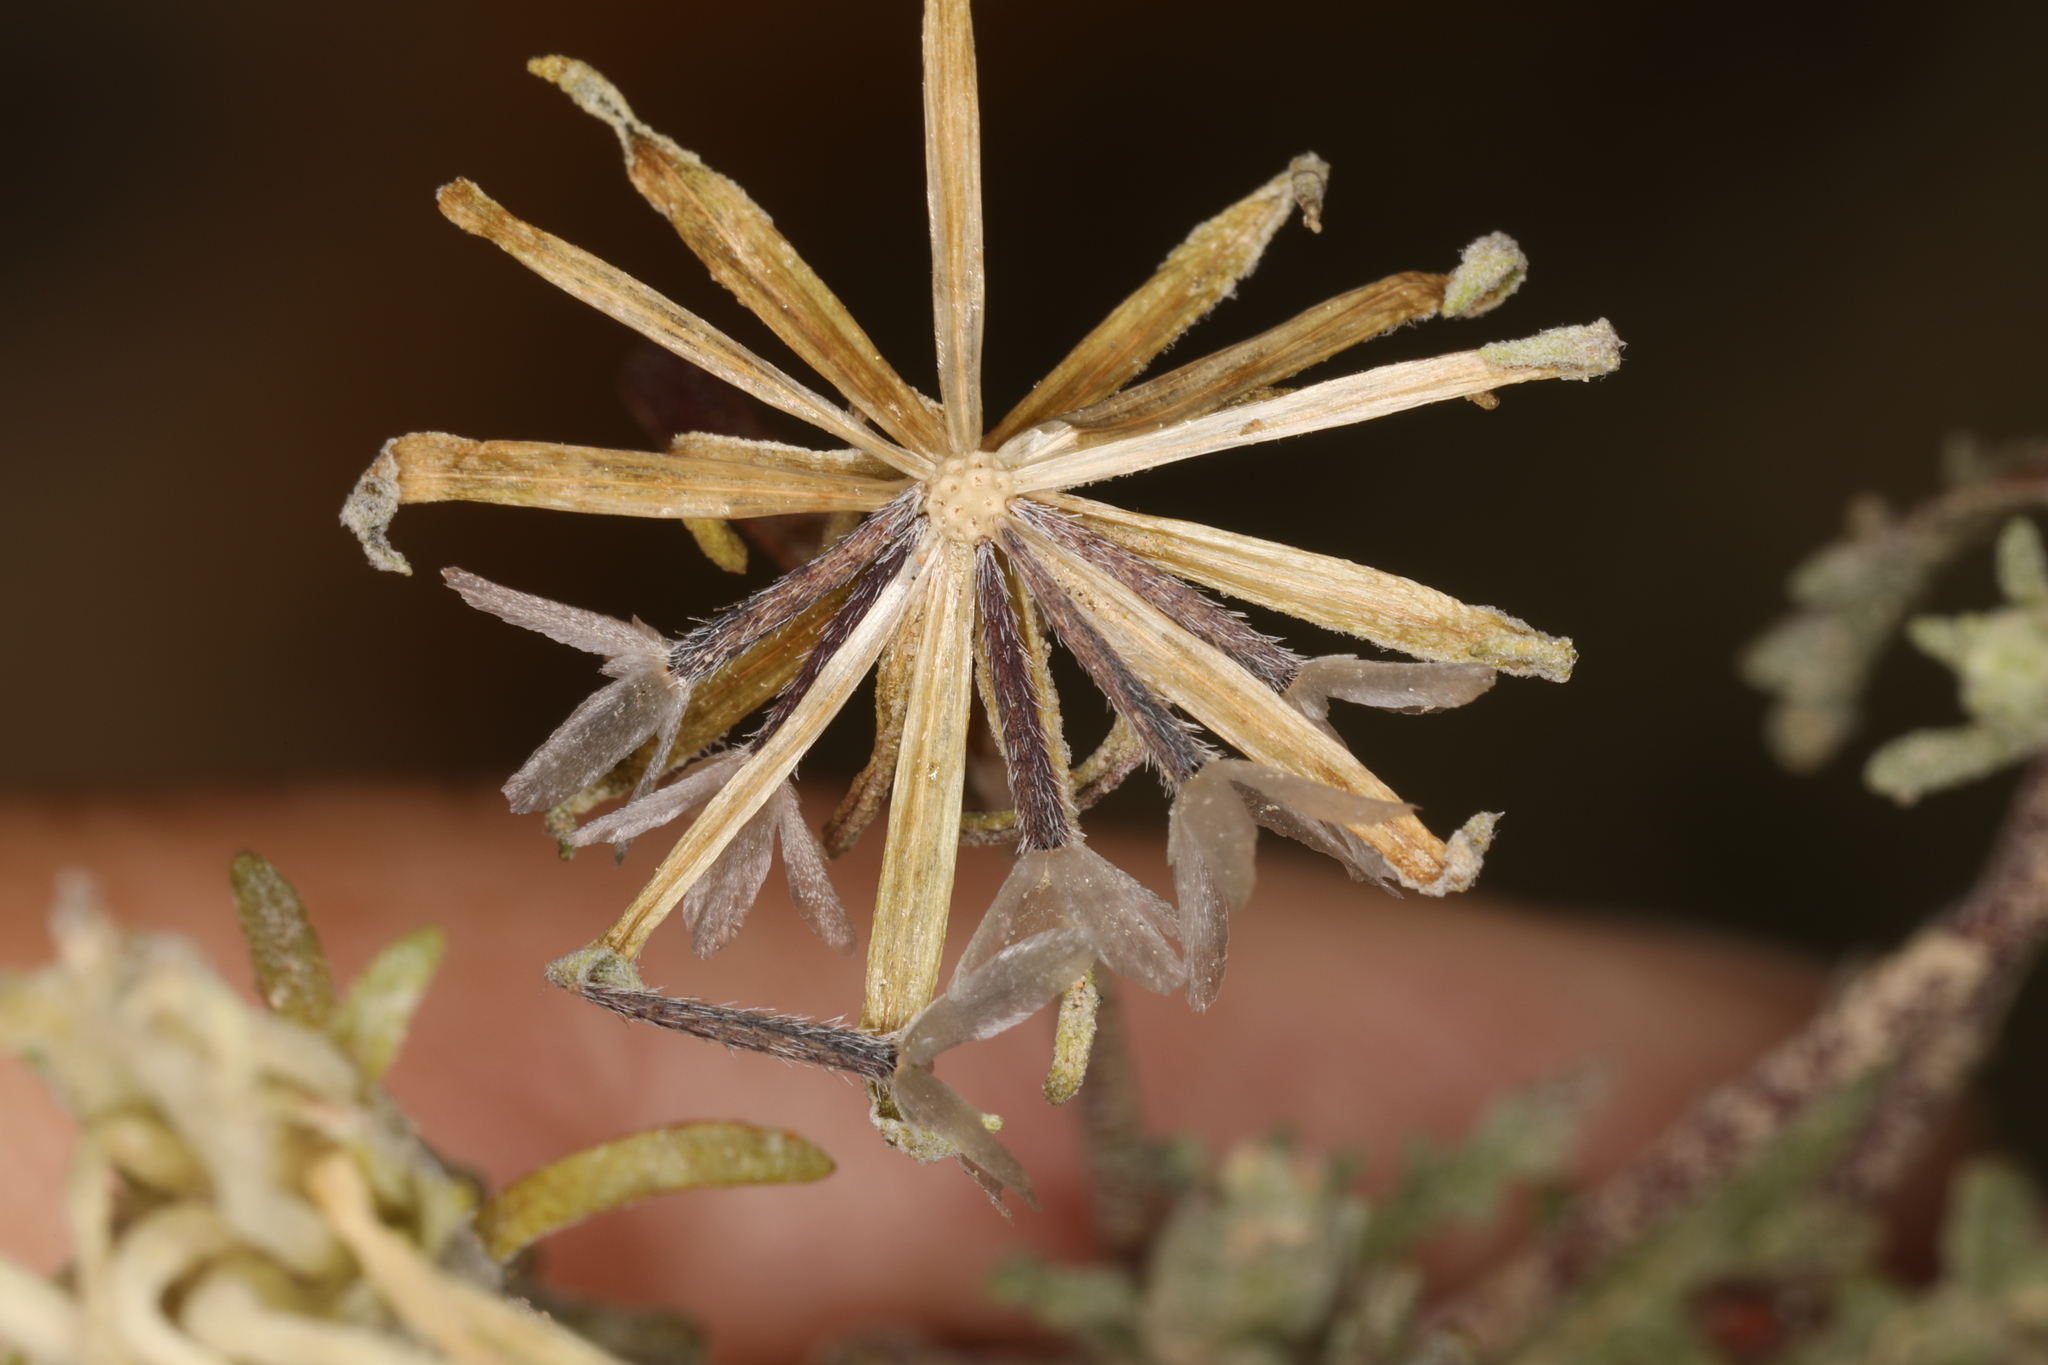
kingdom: Plantae
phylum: Tracheophyta
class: Magnoliopsida
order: Asterales
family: Asteraceae
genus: Chaenactis
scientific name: Chaenactis macrantha
